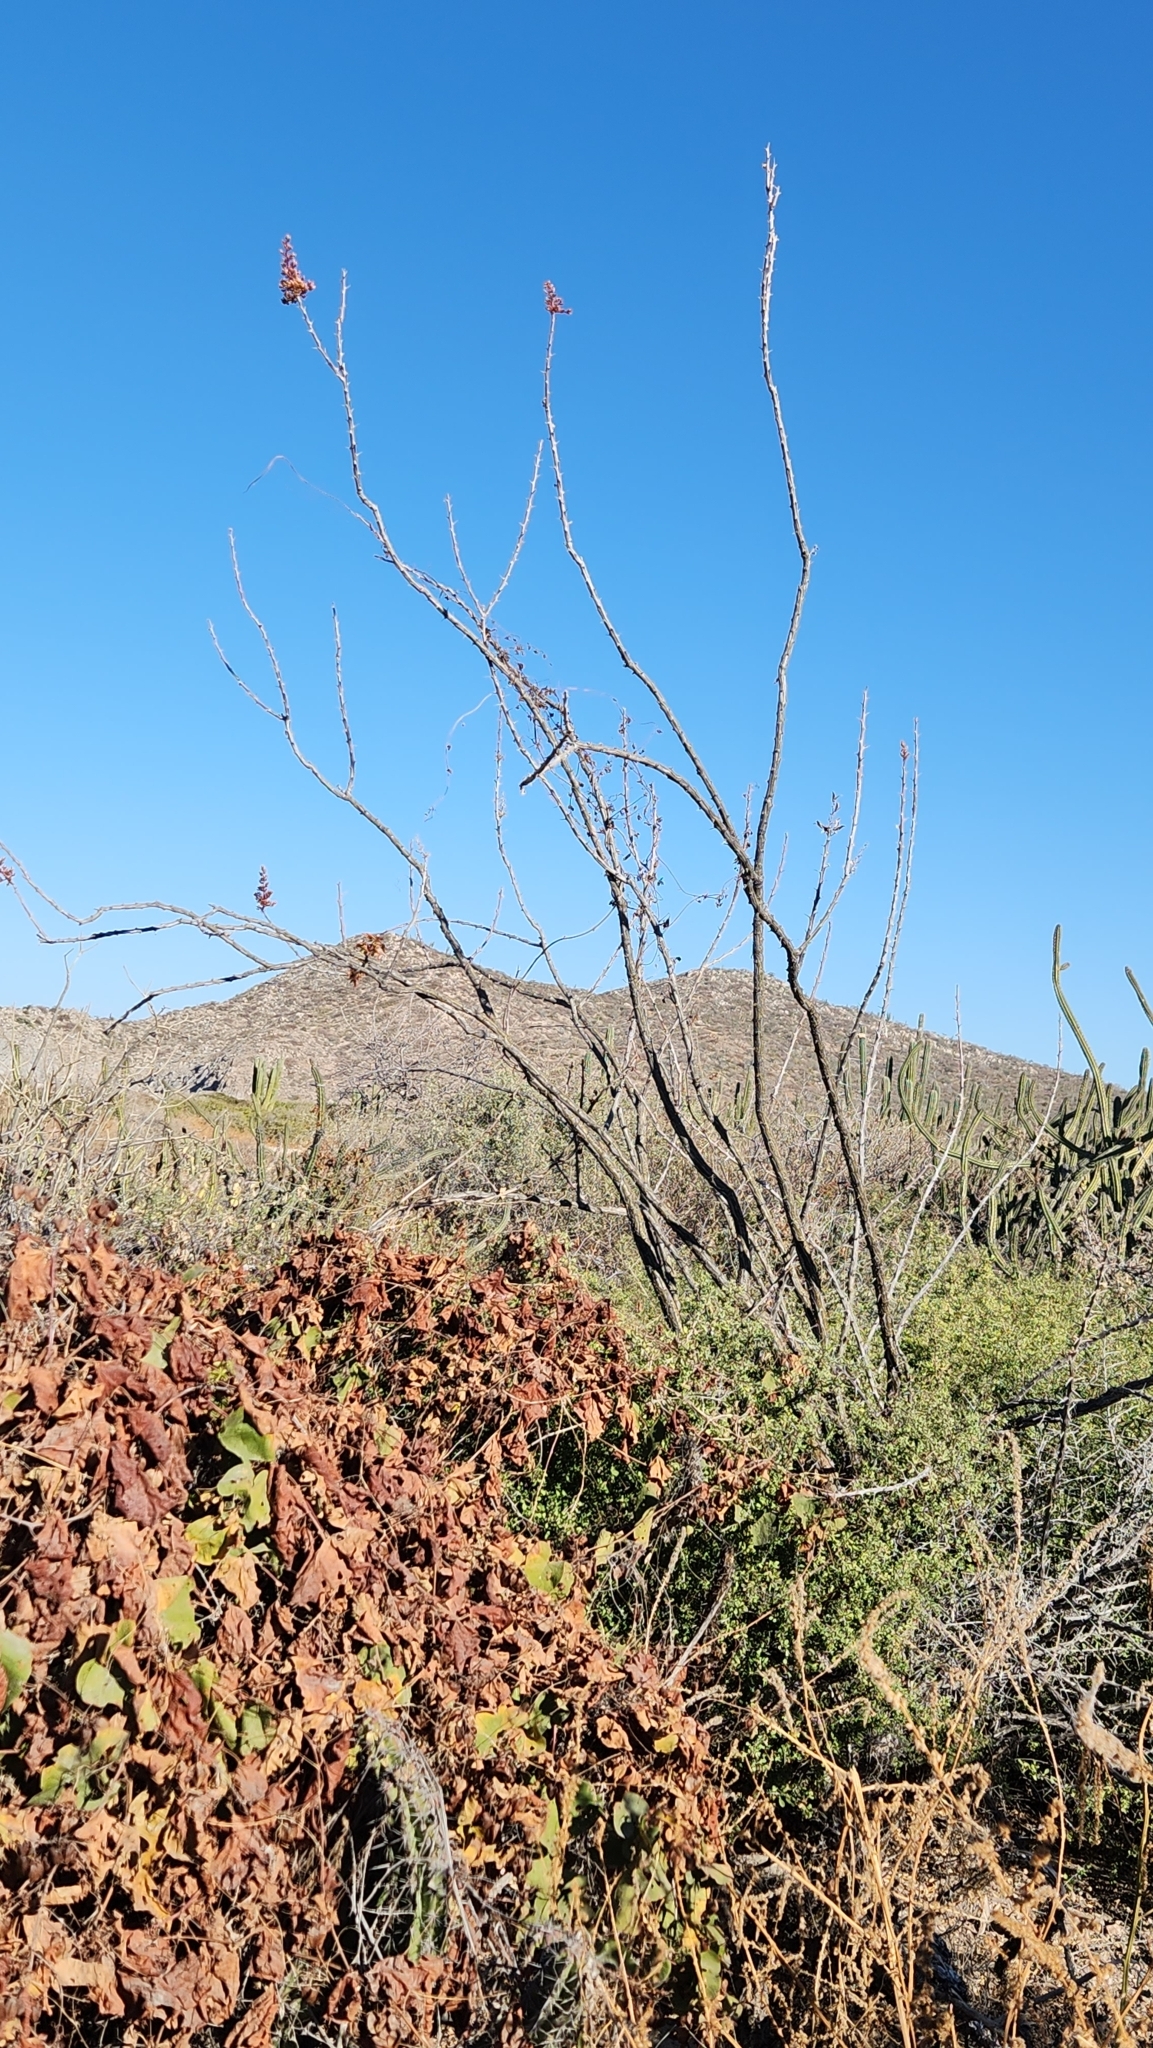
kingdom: Plantae
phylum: Tracheophyta
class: Magnoliopsida
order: Ericales
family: Fouquieriaceae
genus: Fouquieria
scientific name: Fouquieria diguetii
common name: Adam's tree
